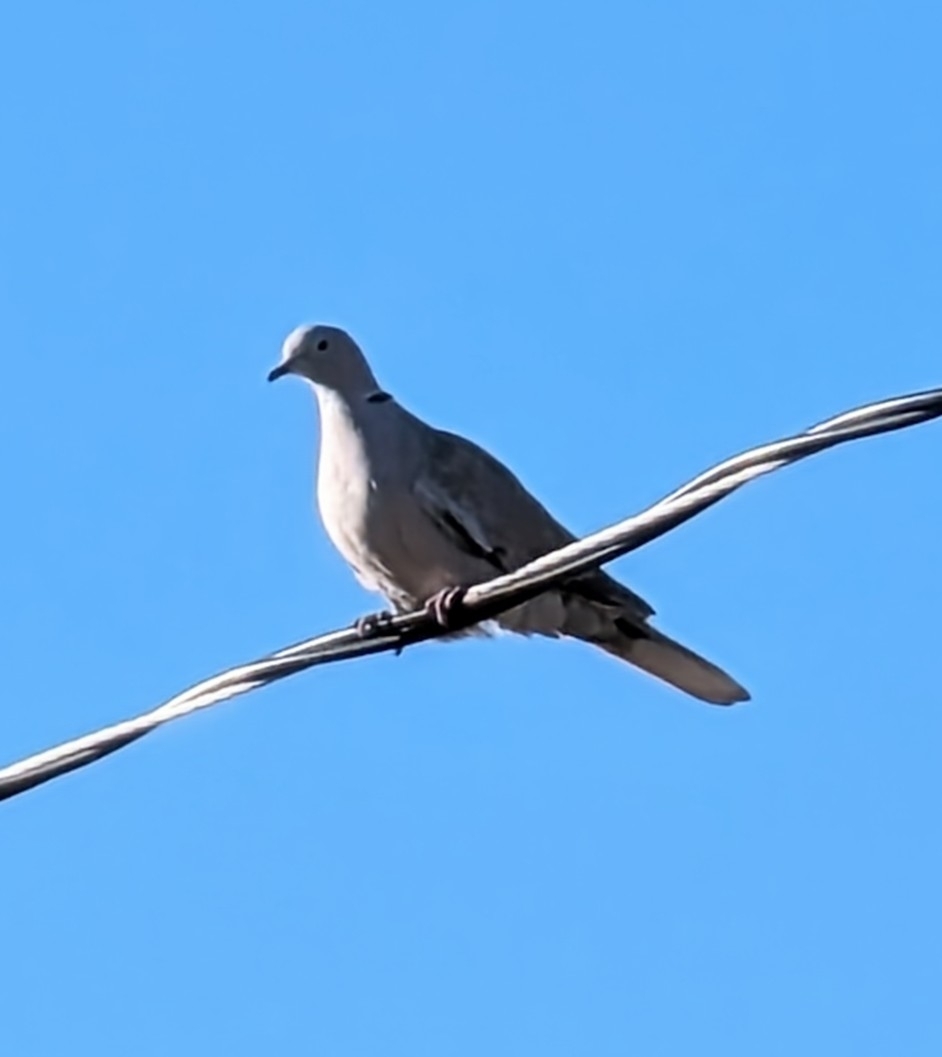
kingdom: Animalia
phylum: Chordata
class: Aves
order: Columbiformes
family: Columbidae
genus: Streptopelia
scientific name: Streptopelia decaocto
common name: Eurasian collared dove
